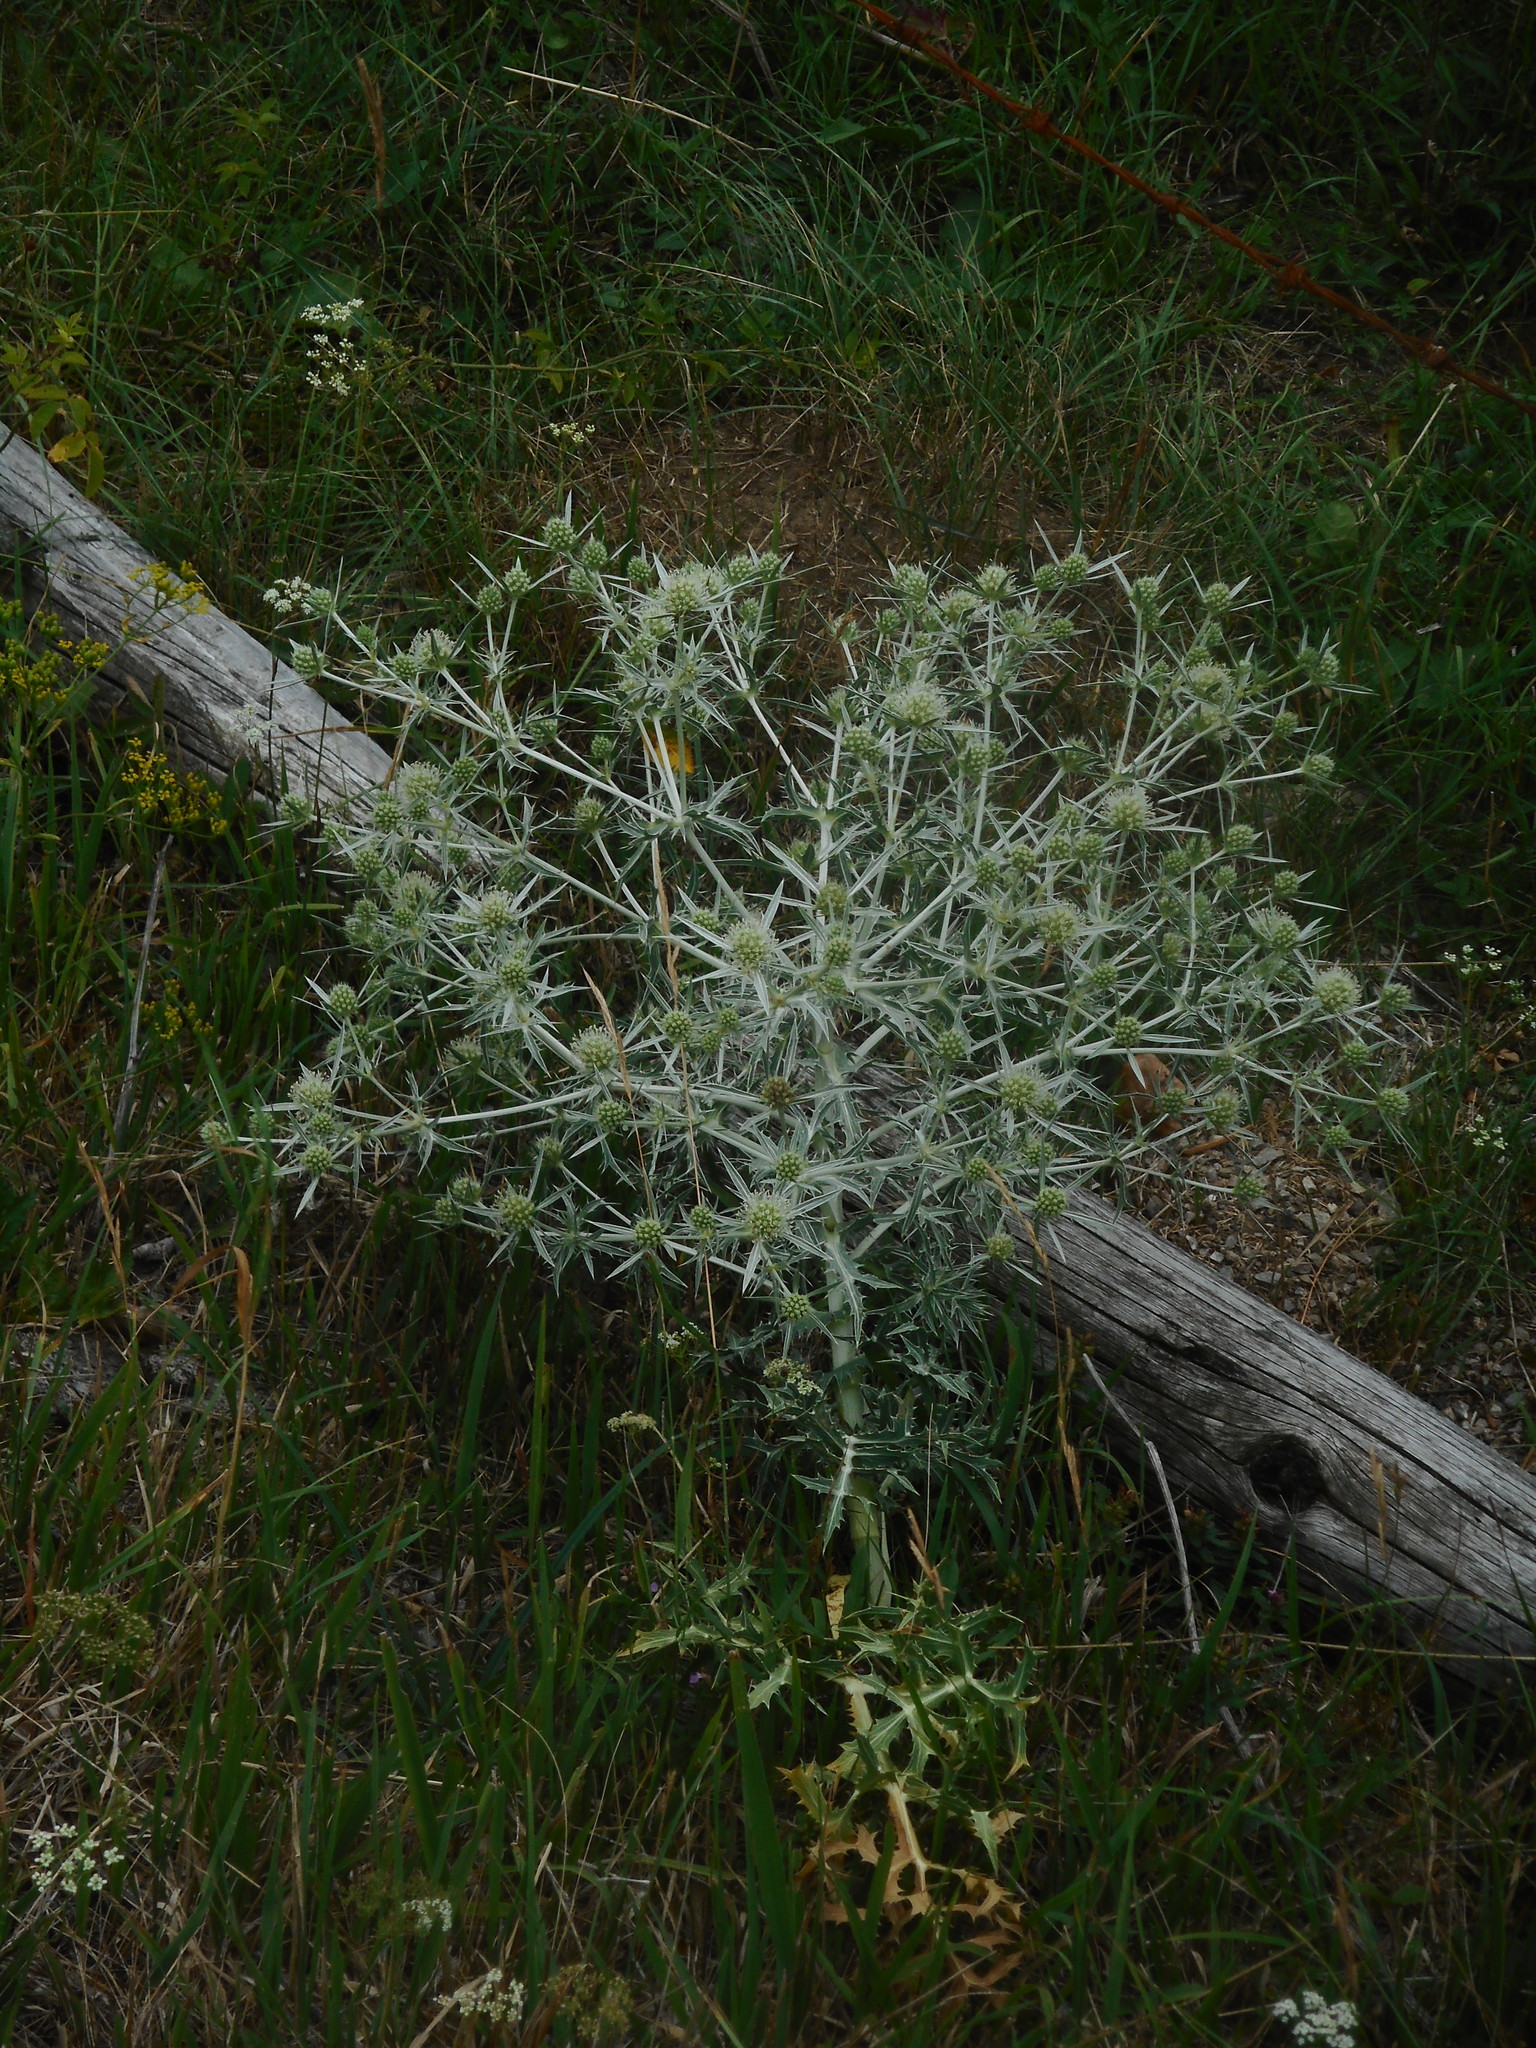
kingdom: Plantae
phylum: Tracheophyta
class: Magnoliopsida
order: Apiales
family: Apiaceae
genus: Eryngium
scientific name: Eryngium campestre
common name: Field eryngo
